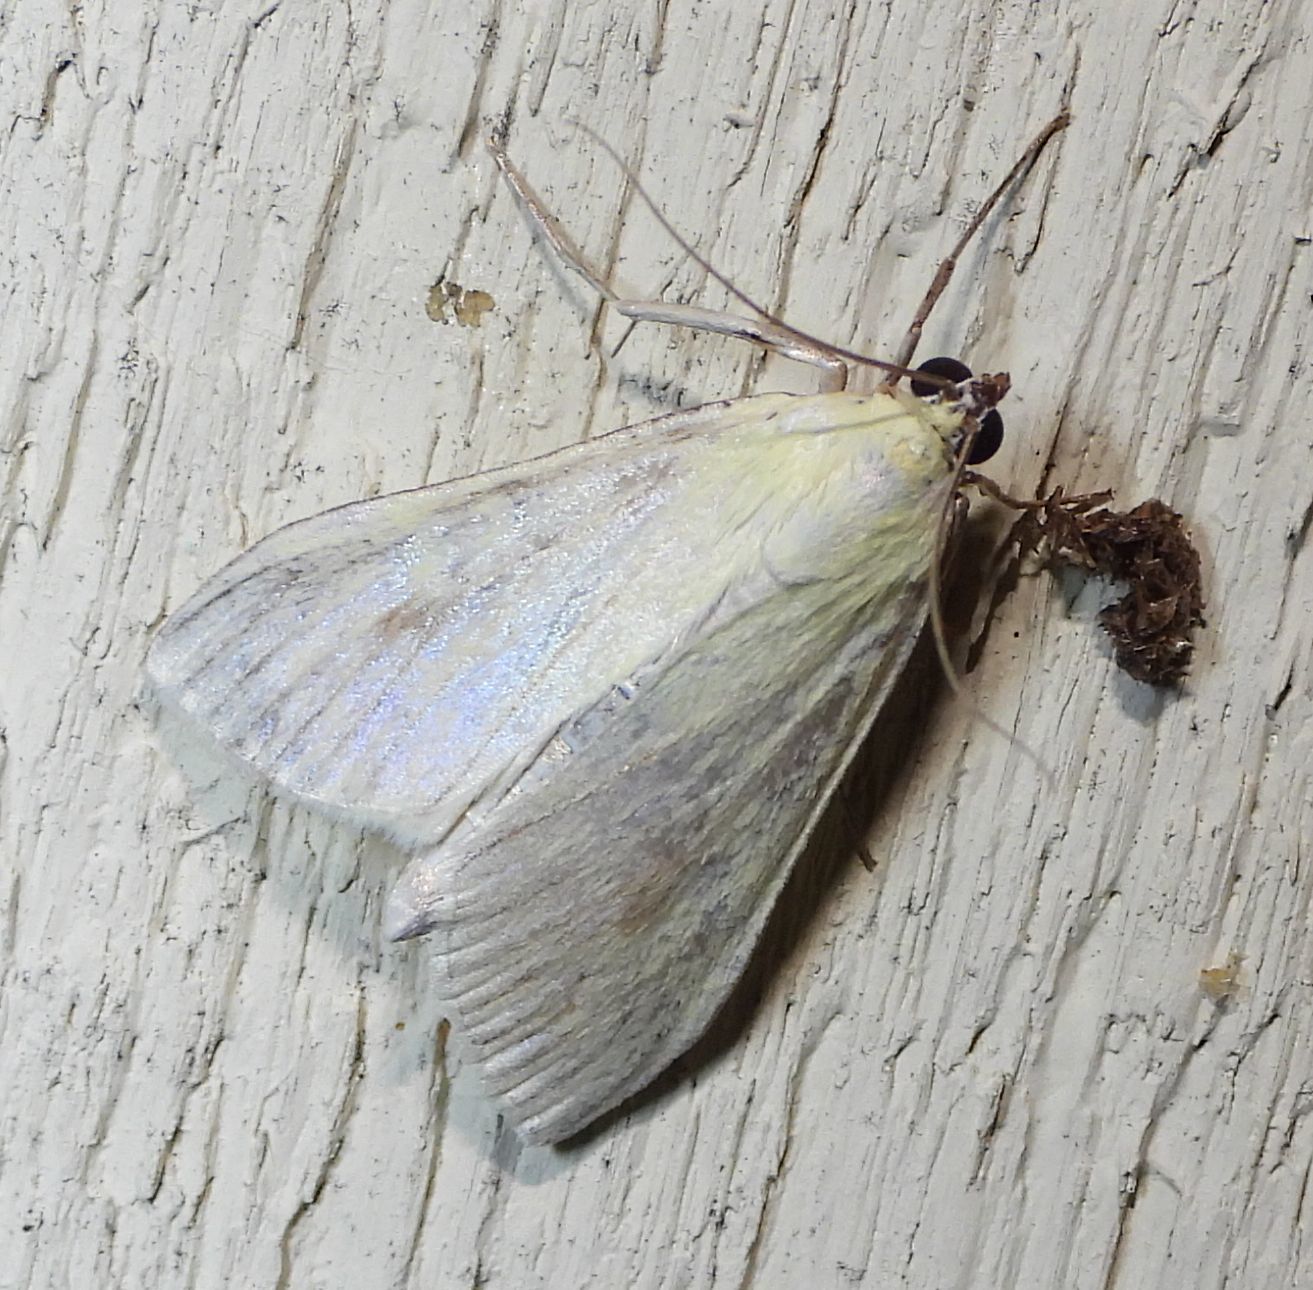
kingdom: Animalia
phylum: Arthropoda
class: Insecta
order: Lepidoptera
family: Crambidae
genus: Sitochroa
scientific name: Sitochroa palealis
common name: Greenish-yellow sitochroa moth
